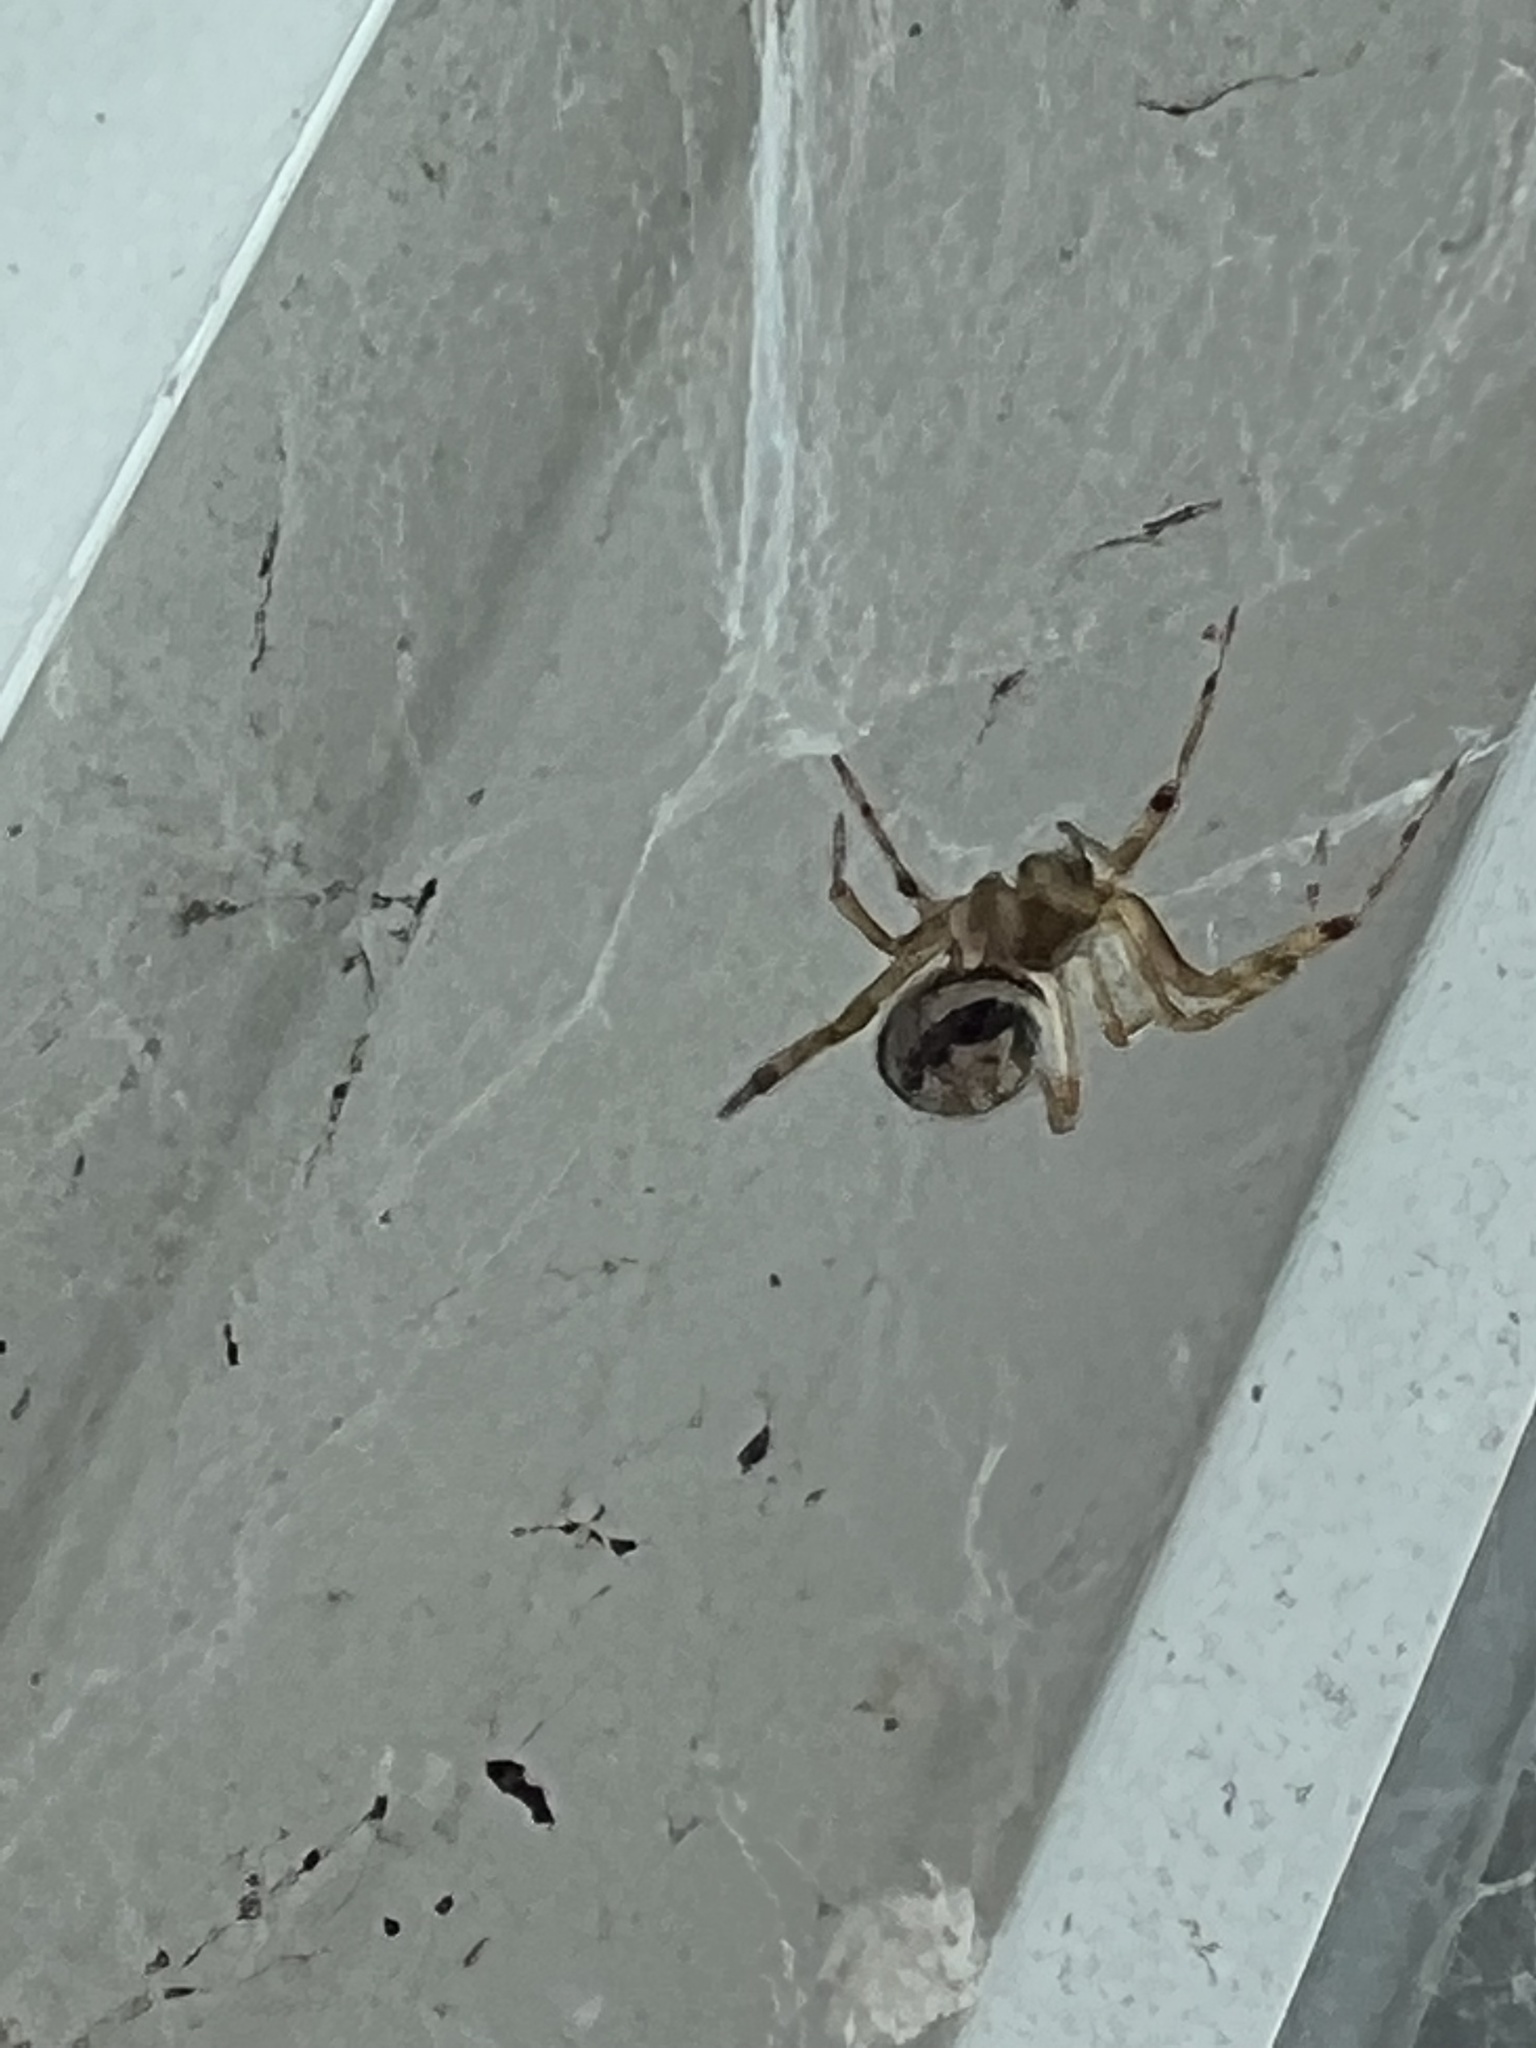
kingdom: Animalia
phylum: Arthropoda
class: Arachnida
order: Araneae
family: Theridiidae
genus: Steatoda
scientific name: Steatoda nobilis
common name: Cobweb weaver
